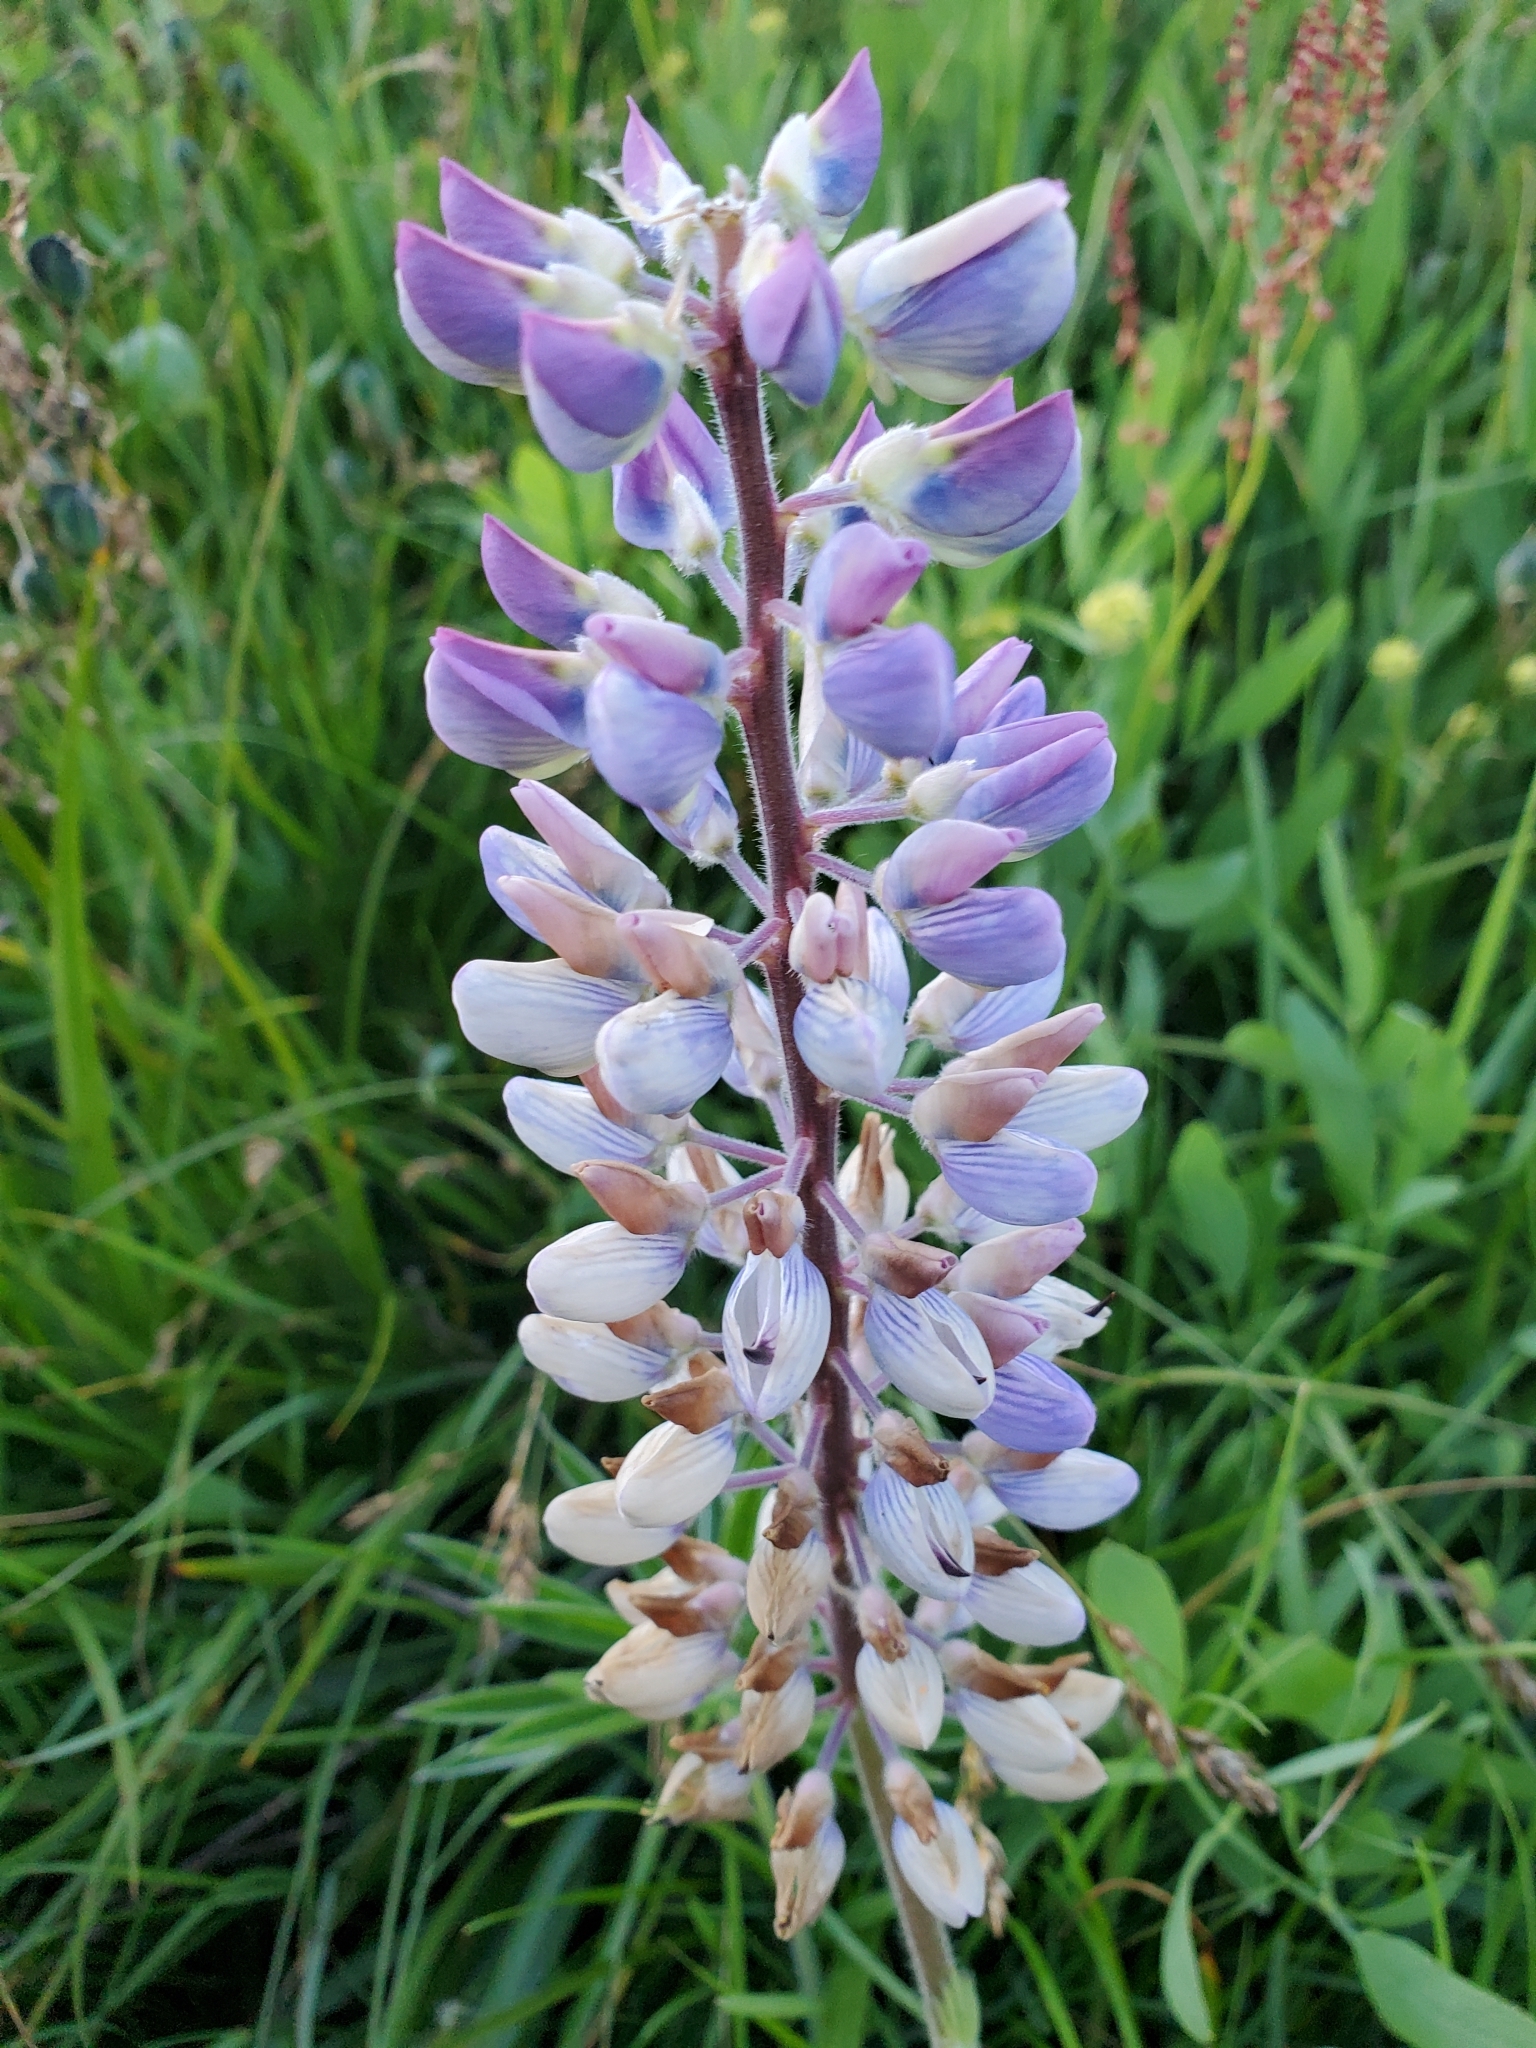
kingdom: Plantae
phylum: Tracheophyta
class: Magnoliopsida
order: Fabales
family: Fabaceae
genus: Lupinus
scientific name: Lupinus polyphyllus
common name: Garden lupin
